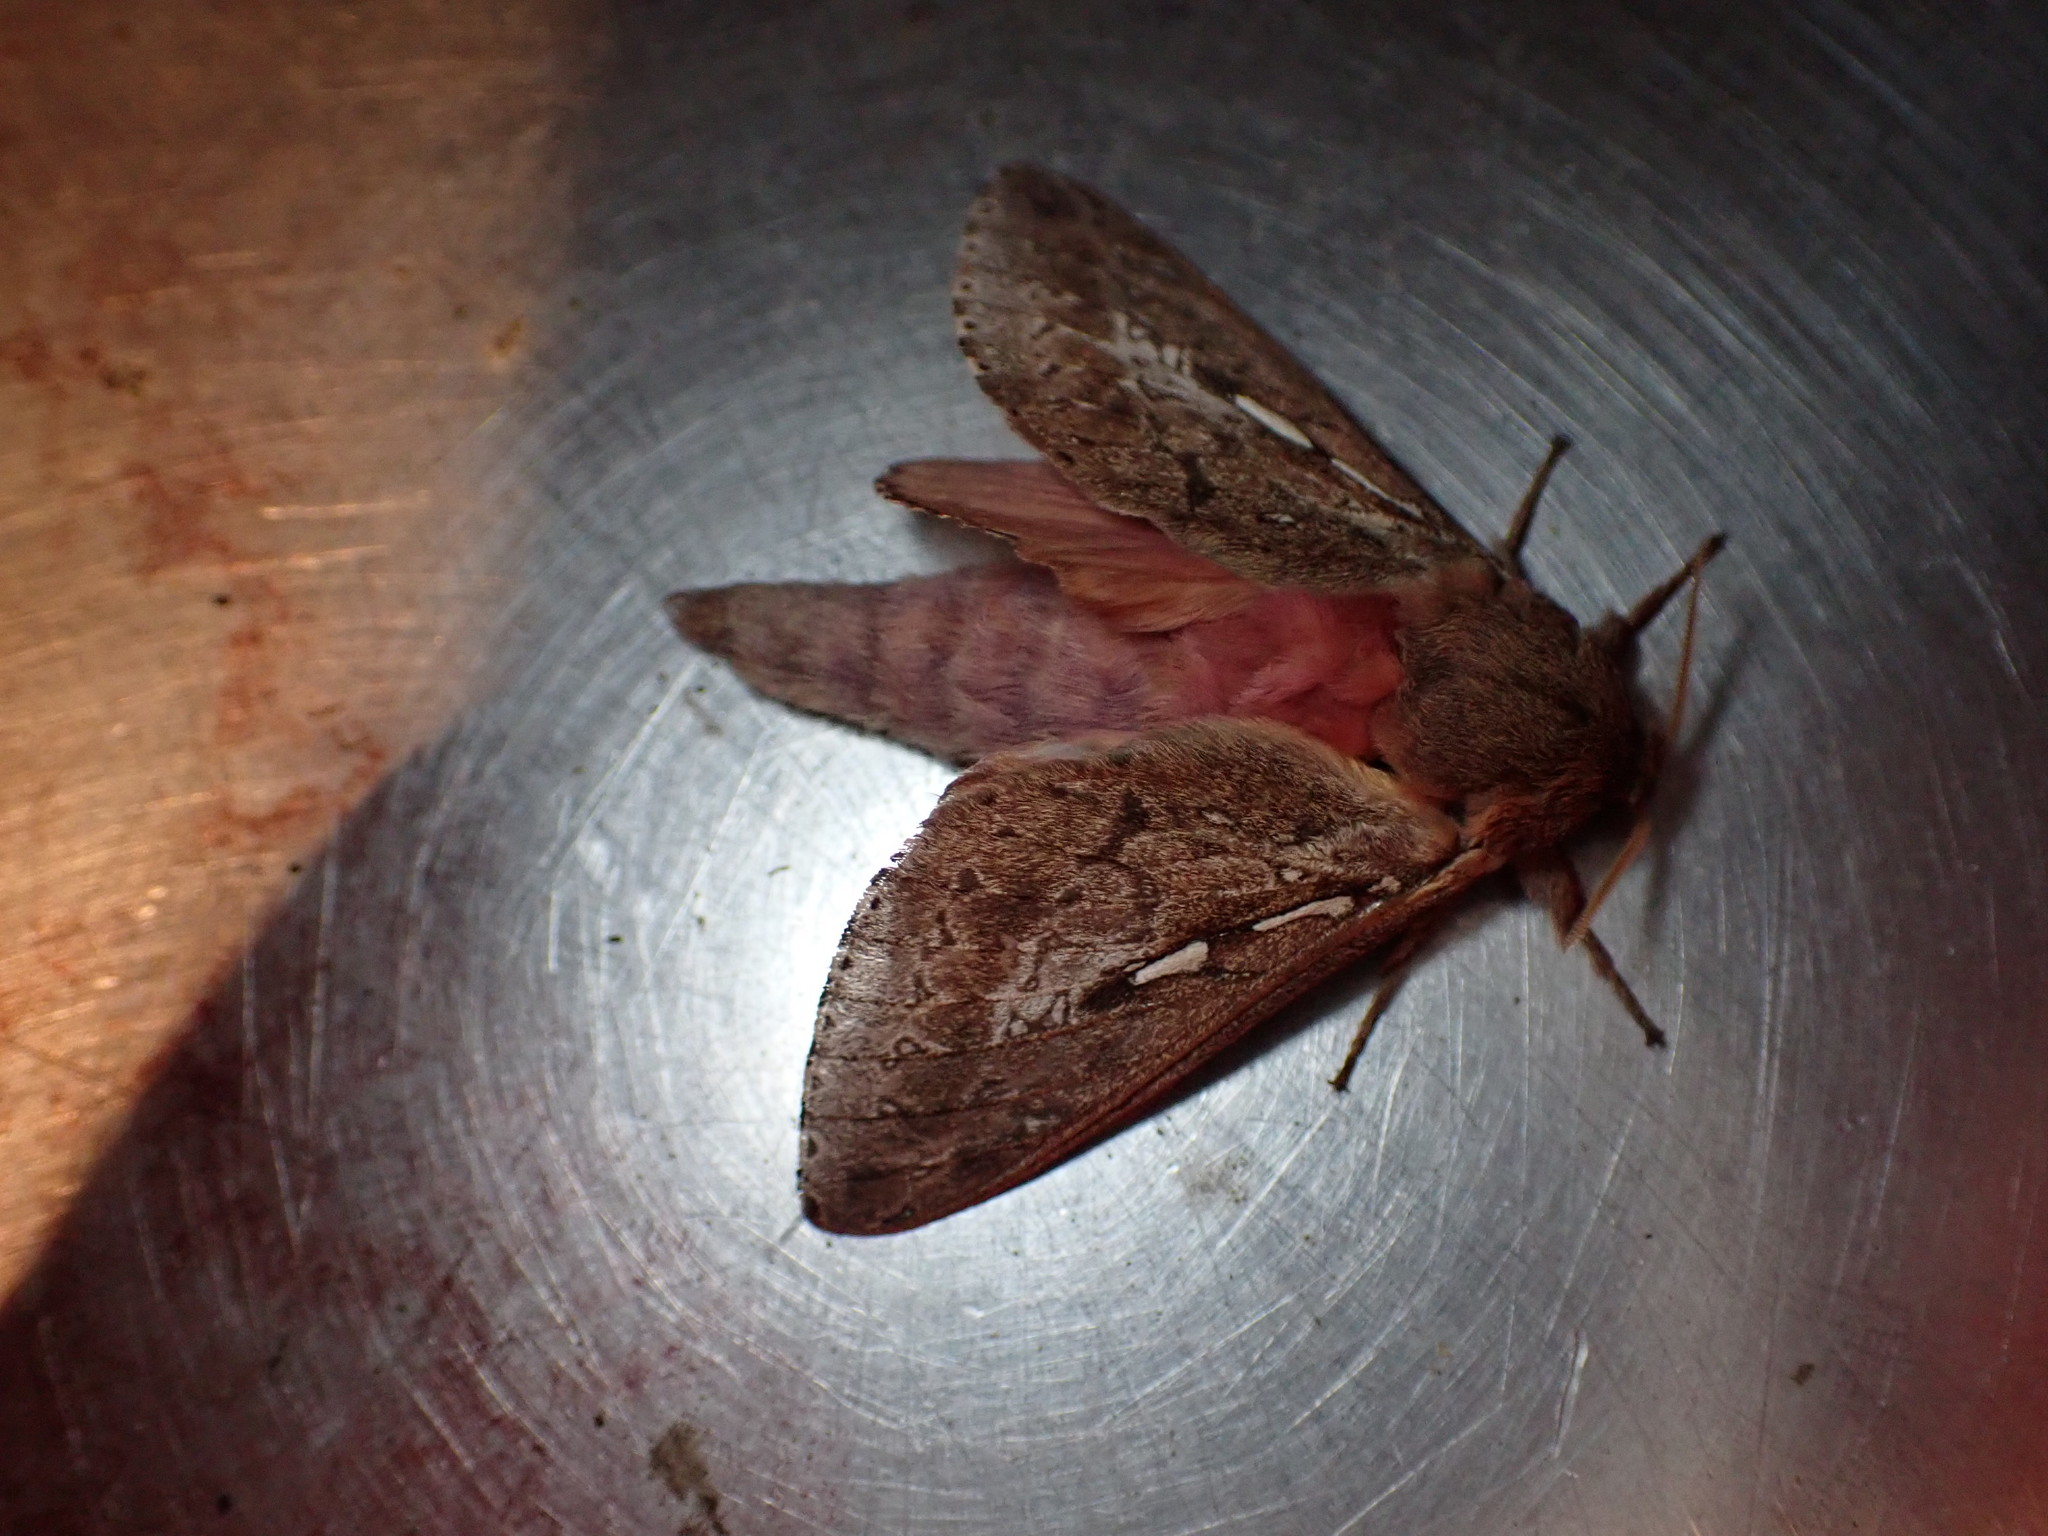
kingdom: Animalia
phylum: Arthropoda
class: Insecta
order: Lepidoptera
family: Hepialidae
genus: Wiseana
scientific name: Wiseana signata
